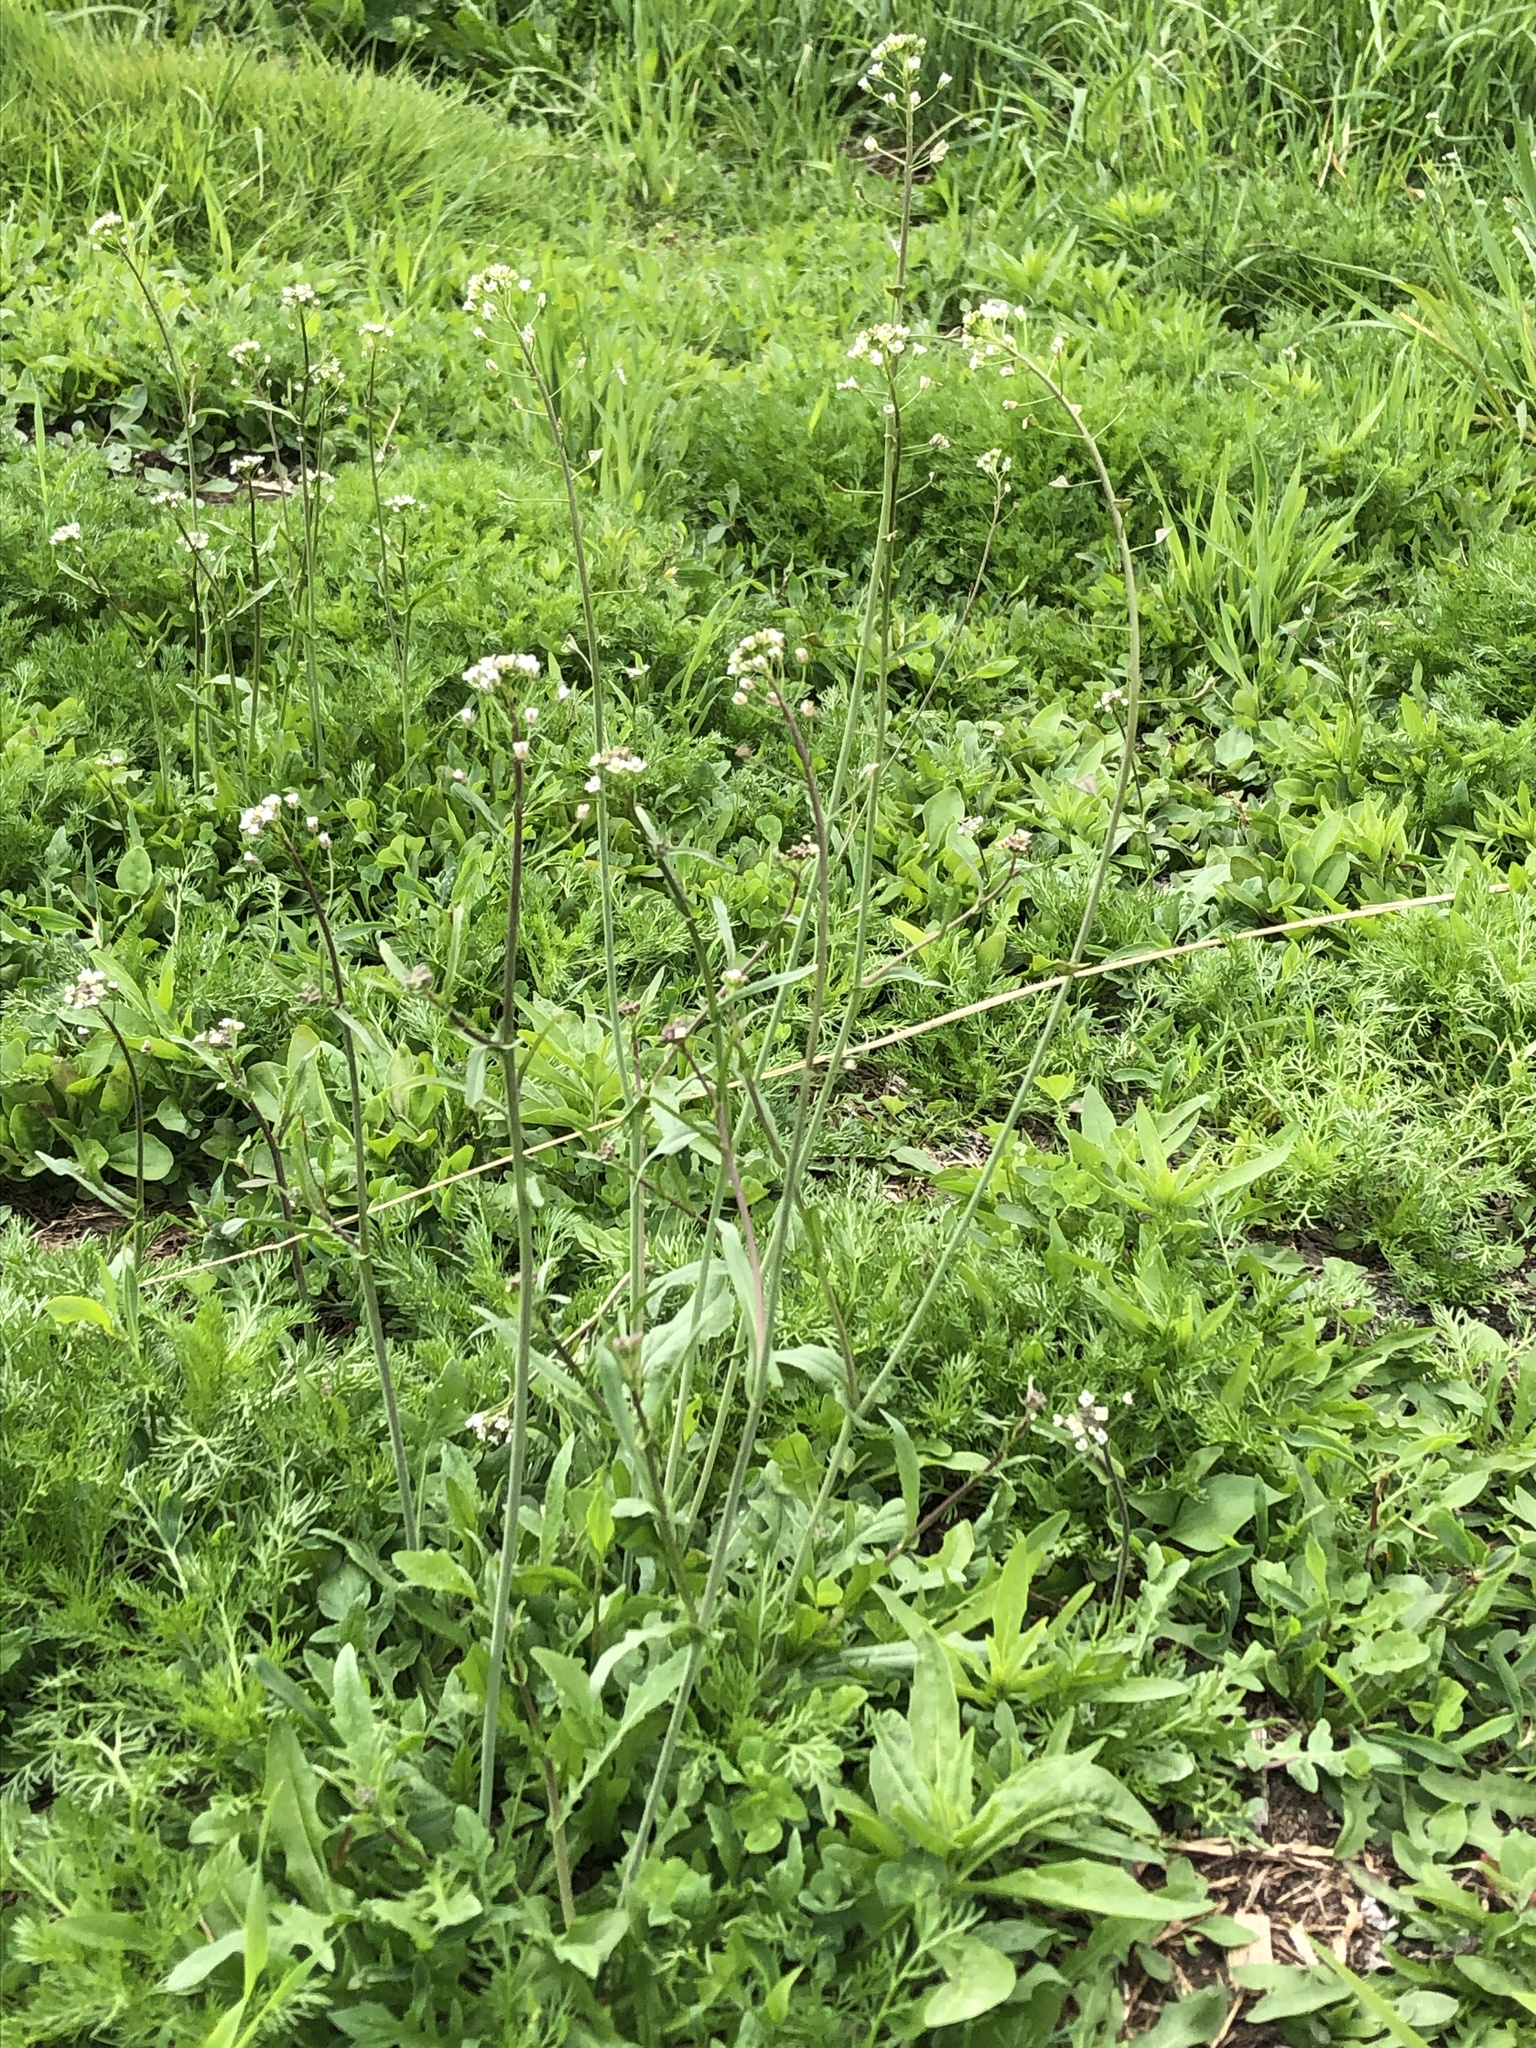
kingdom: Plantae
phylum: Tracheophyta
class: Magnoliopsida
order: Brassicales
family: Brassicaceae
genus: Capsella
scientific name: Capsella bursa-pastoris
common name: Shepherd's purse
